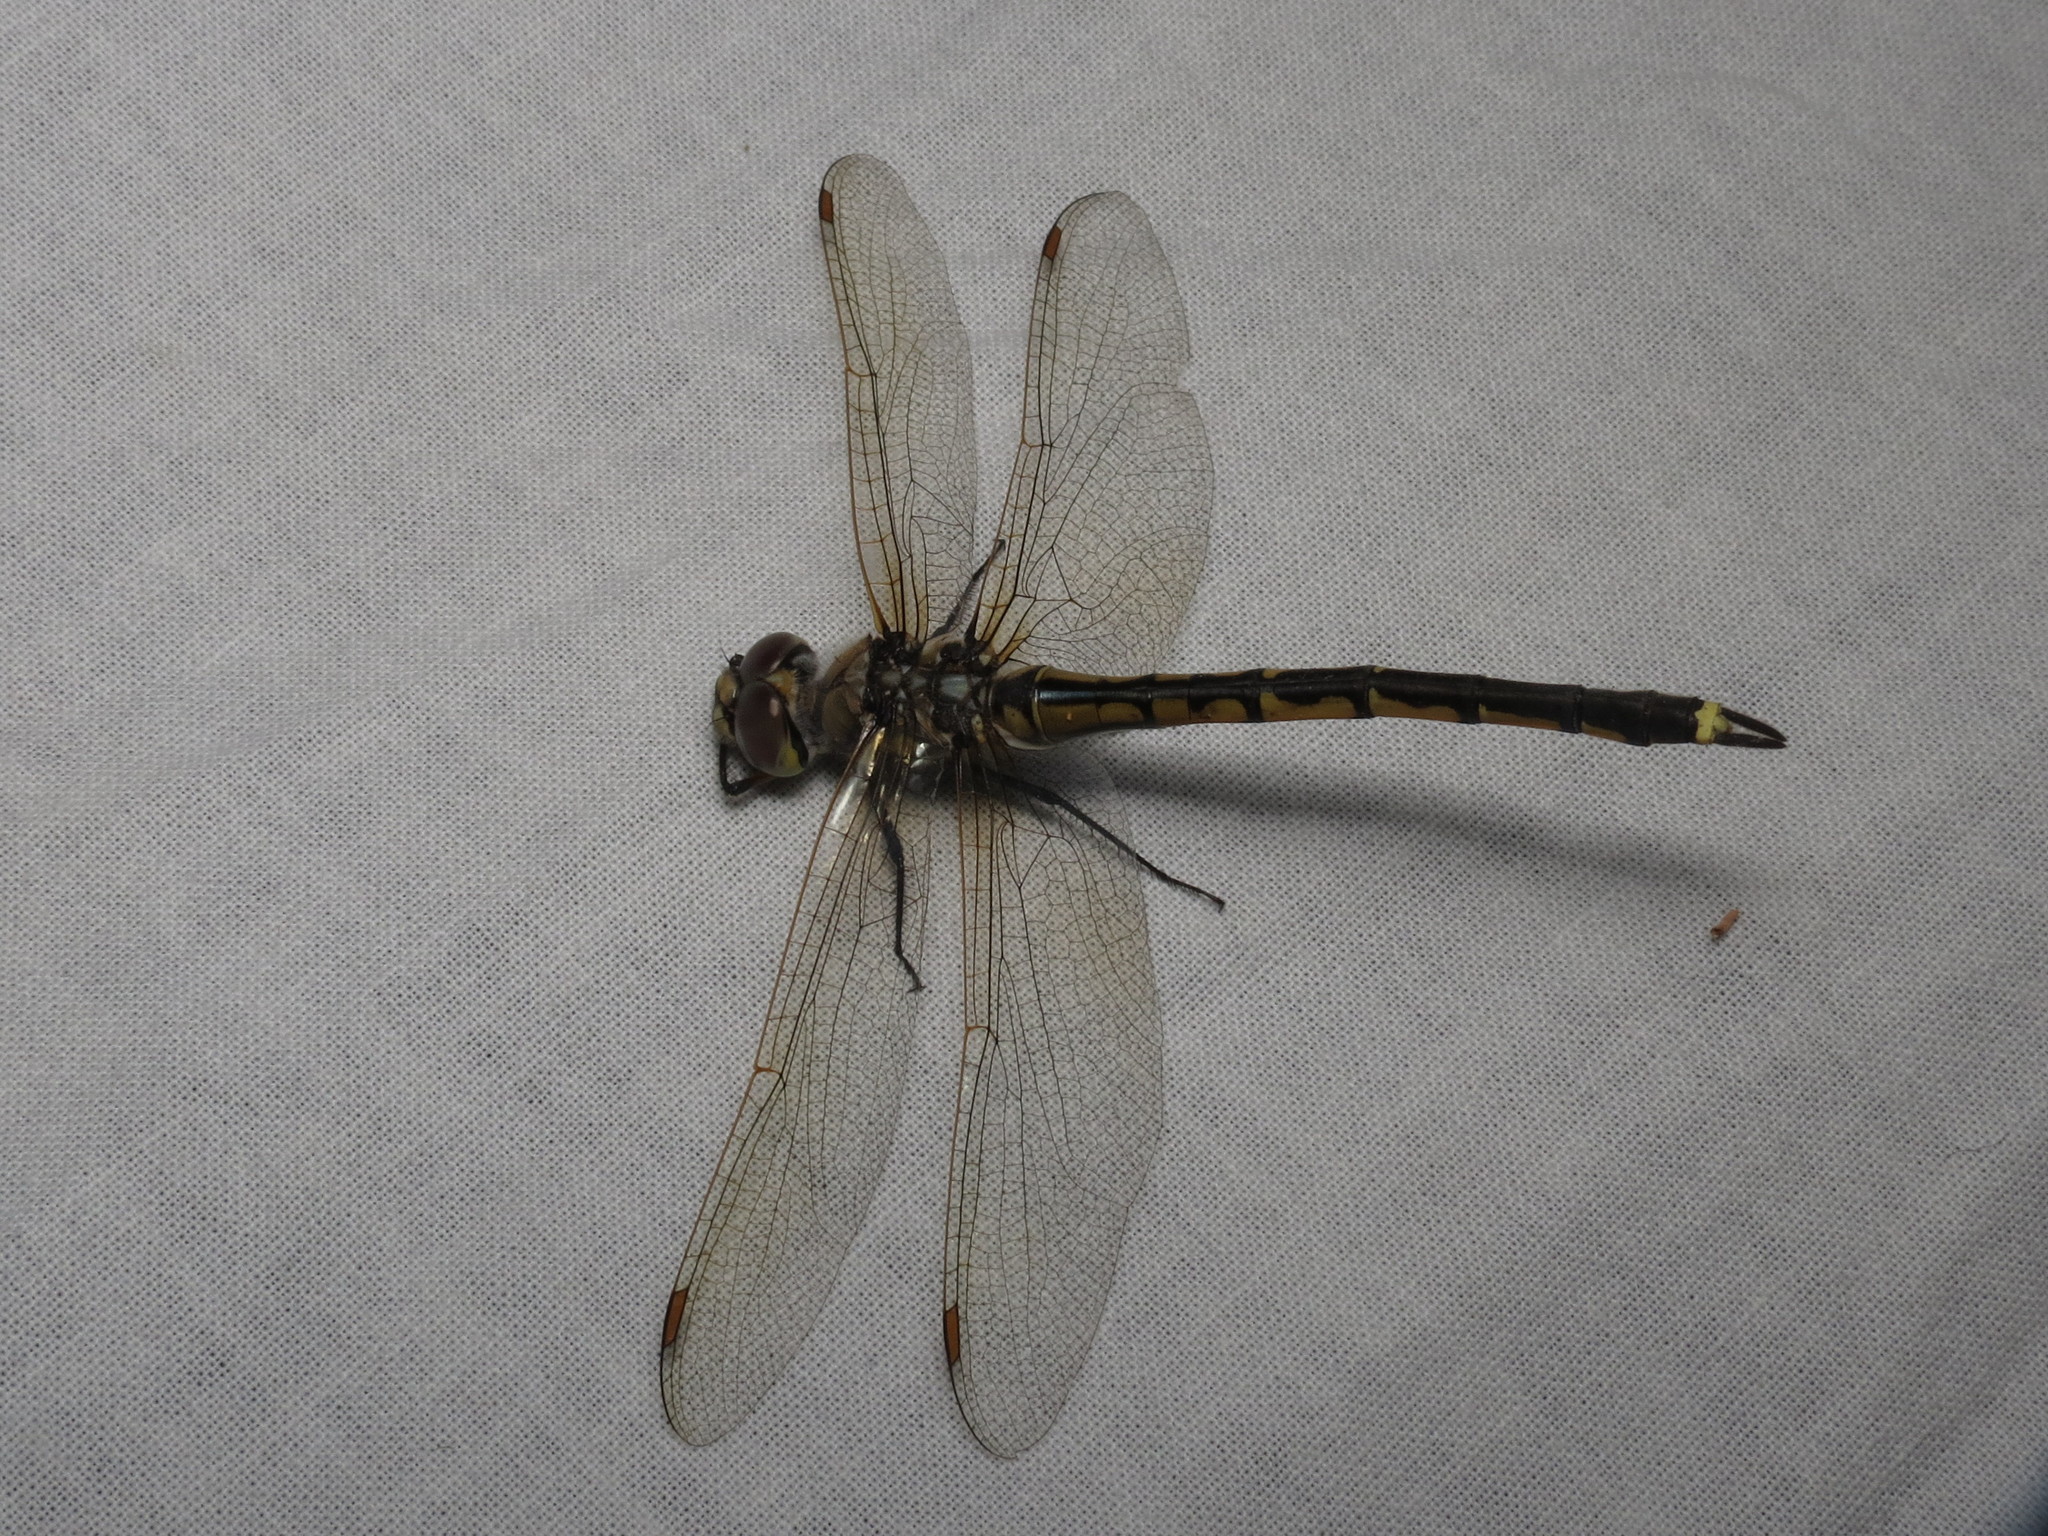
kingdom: Animalia
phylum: Arthropoda
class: Insecta
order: Odonata
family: Corduliidae
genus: Hemicordulia
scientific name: Hemicordulia tau
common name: Tau emerald
